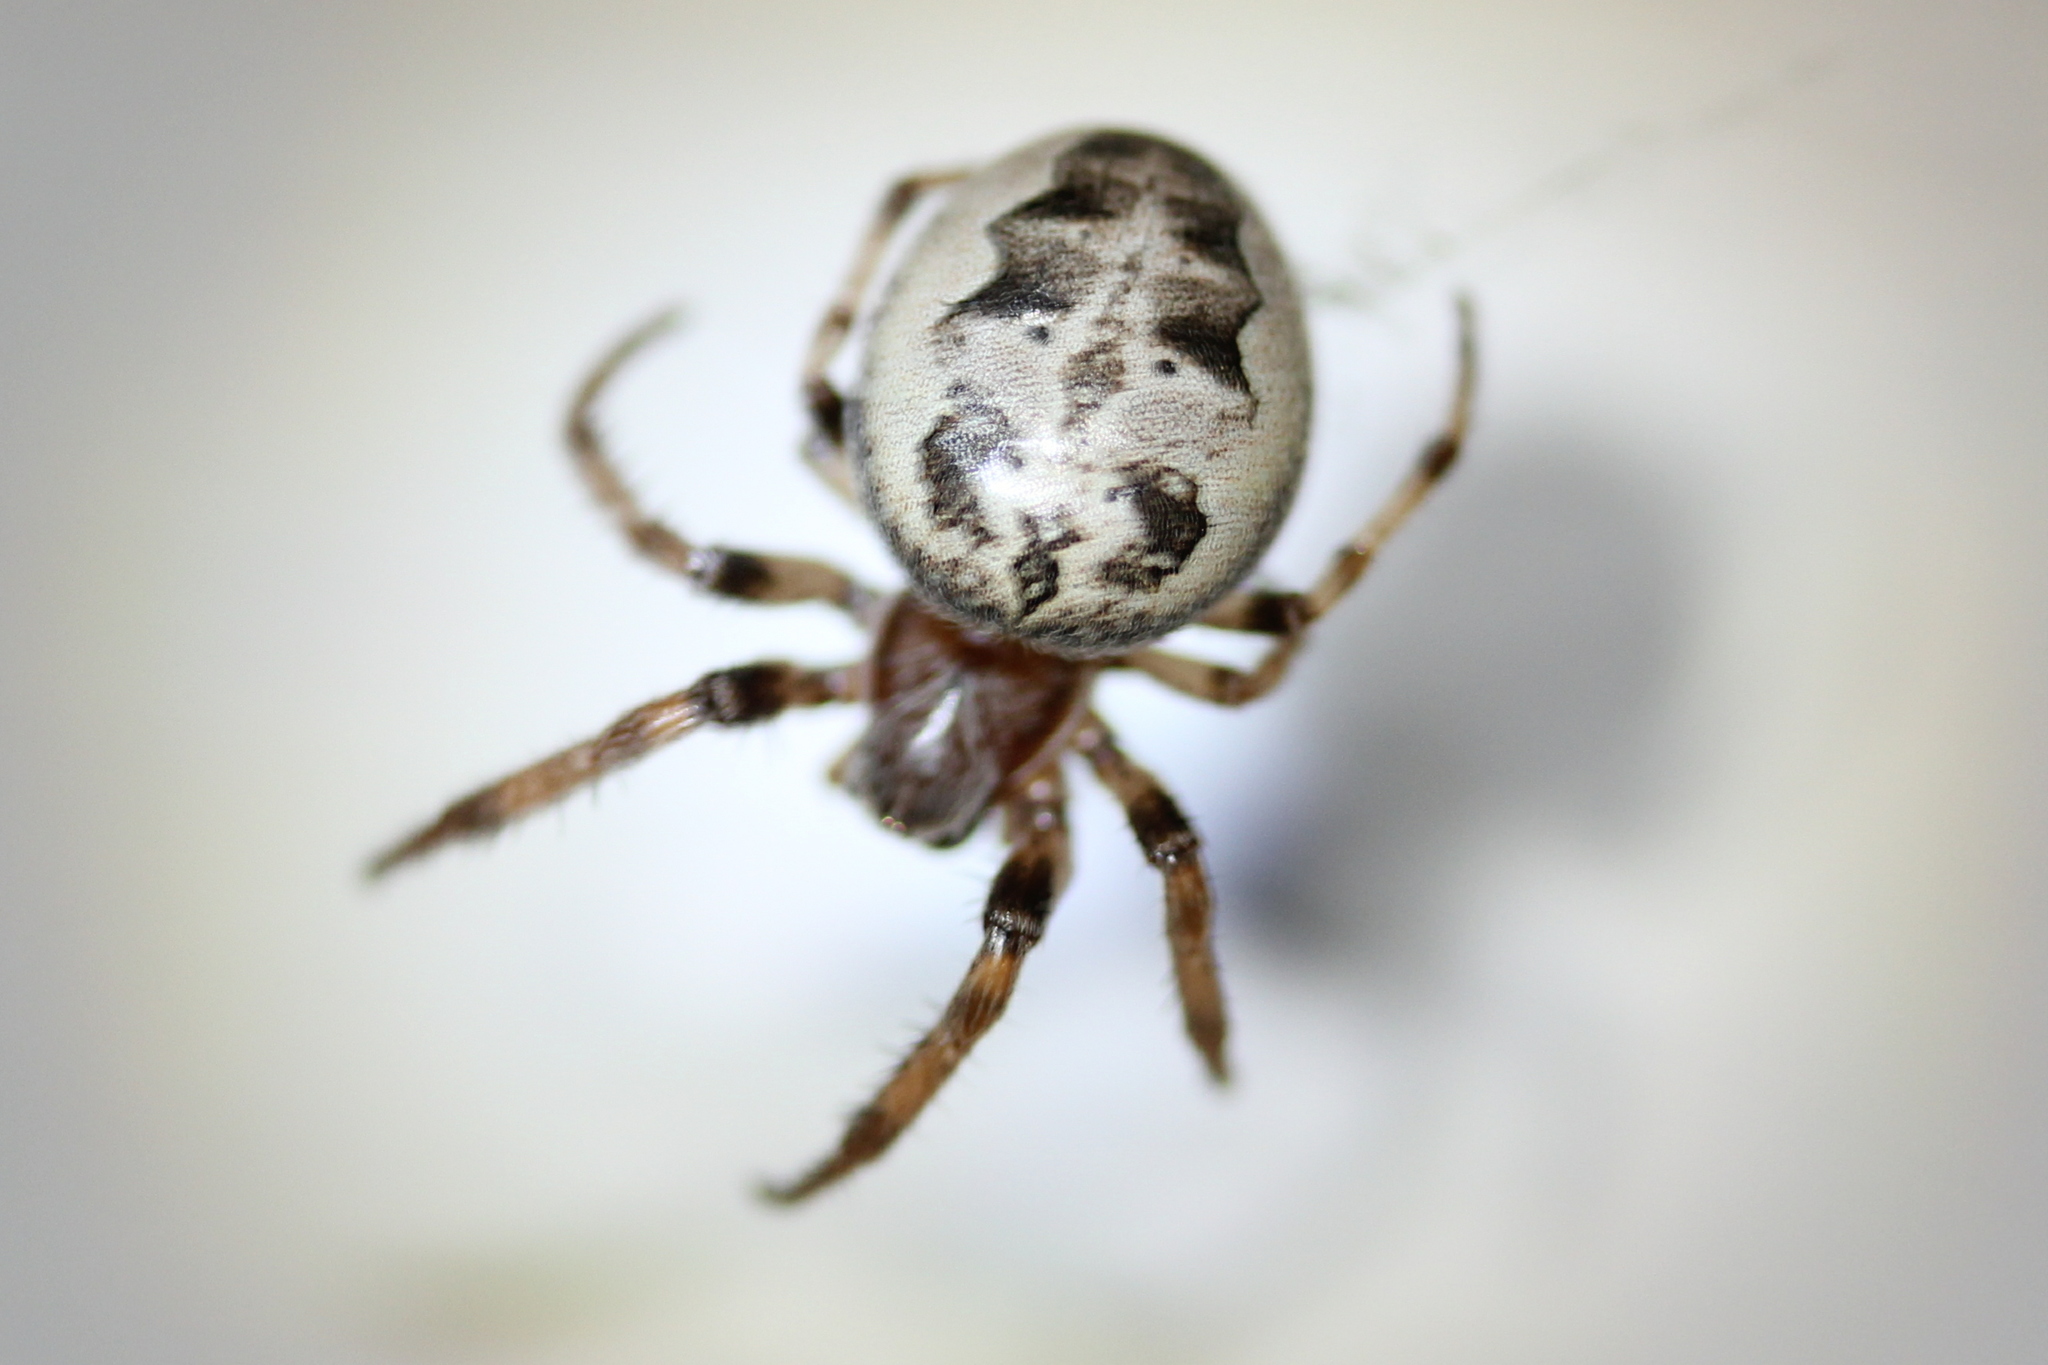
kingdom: Animalia
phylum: Arthropoda
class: Arachnida
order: Araneae
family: Araneidae
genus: Larinioides
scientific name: Larinioides cornutus
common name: Furrow orbweaver
